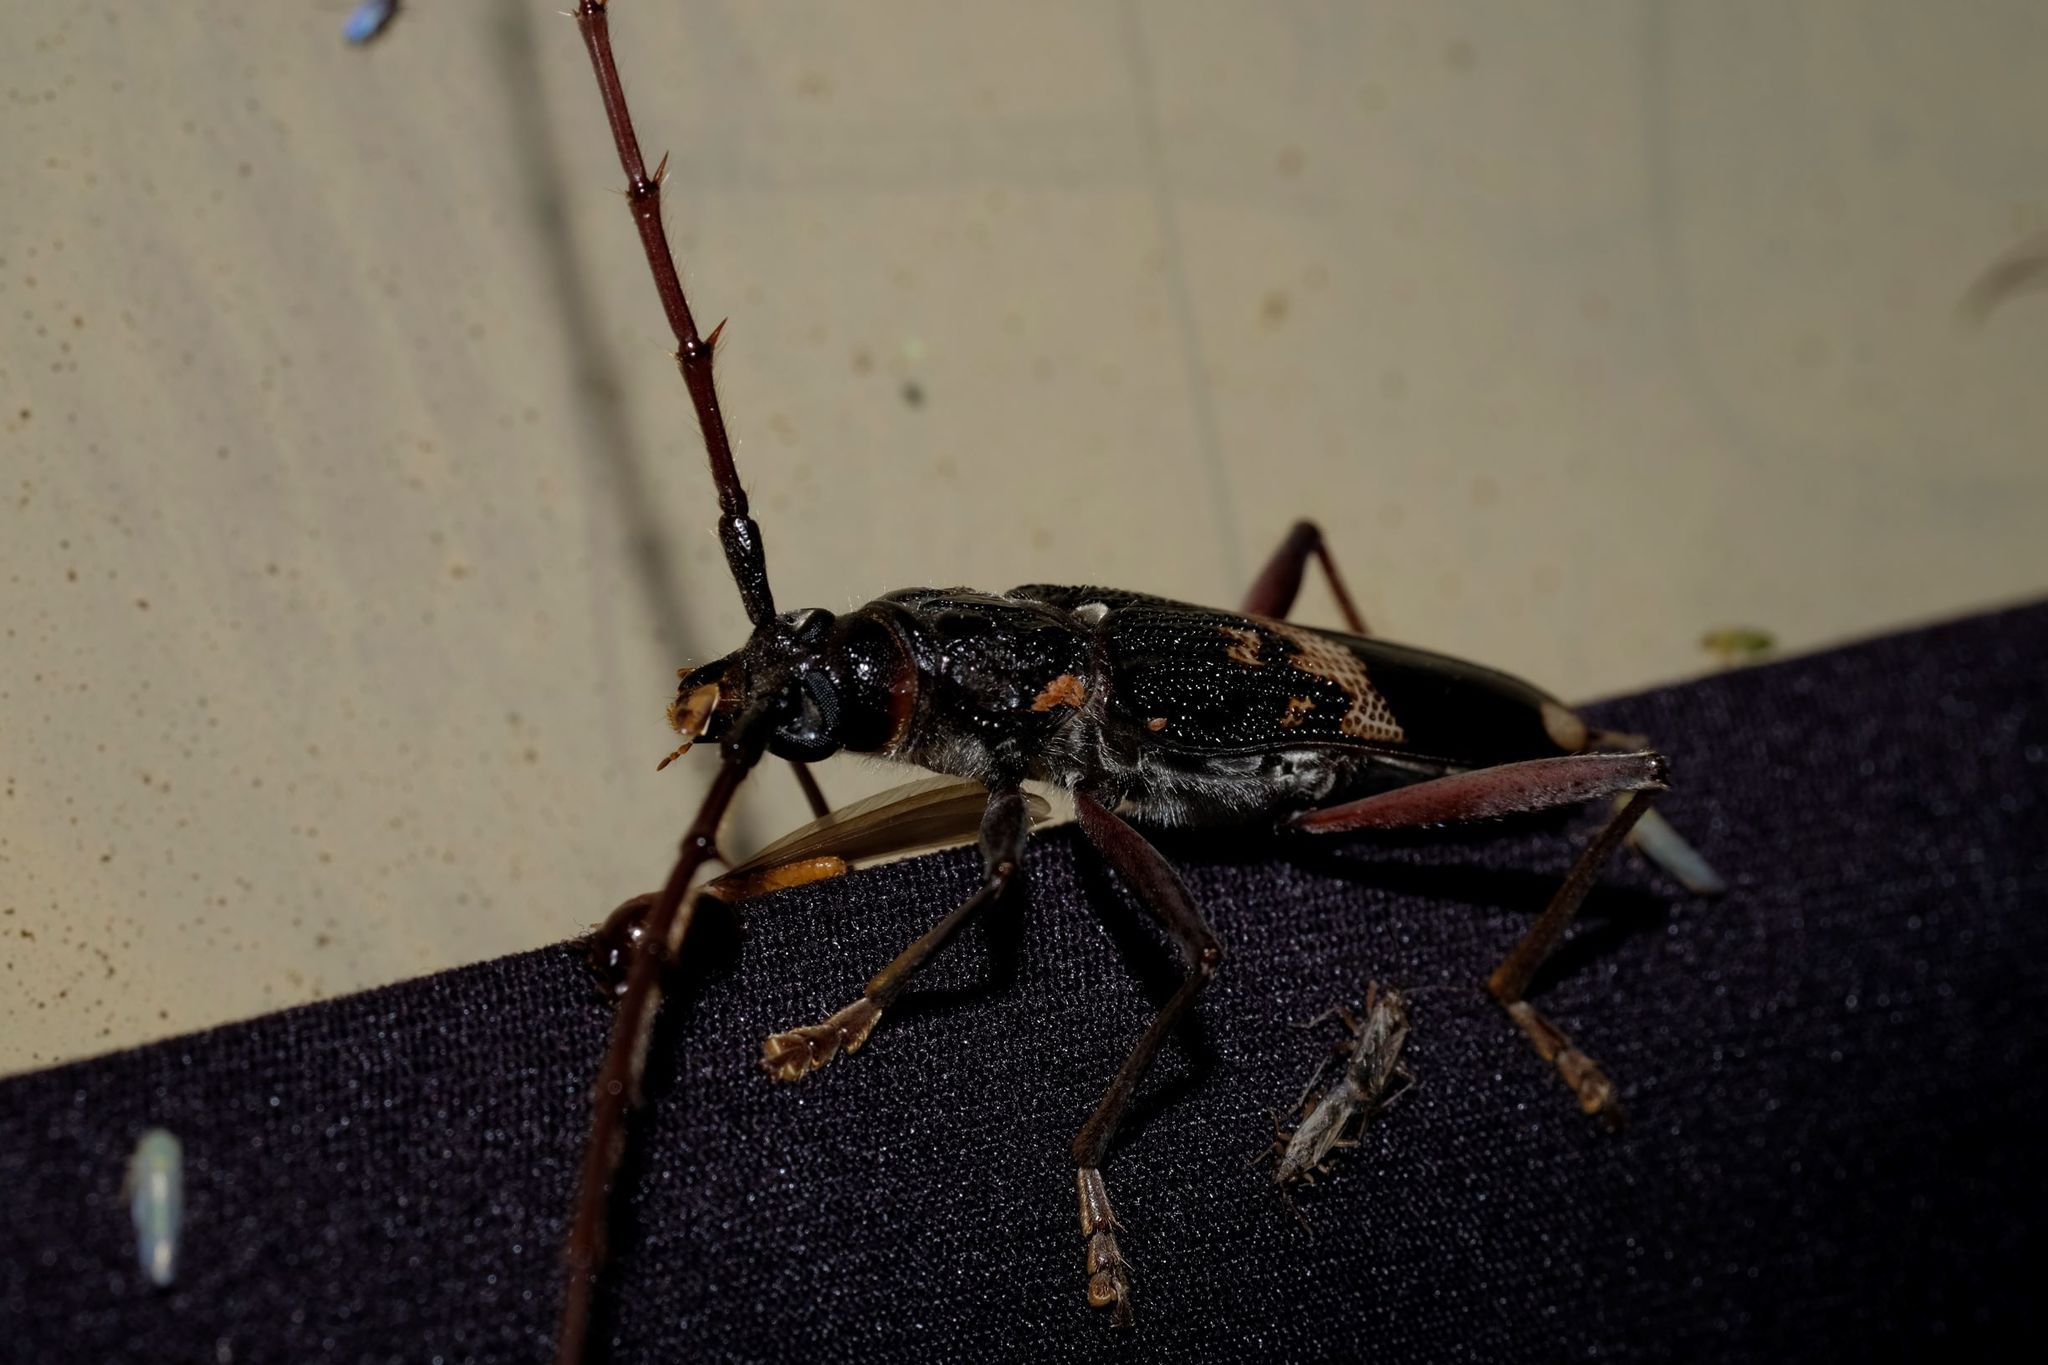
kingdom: Animalia
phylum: Arthropoda
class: Insecta
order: Coleoptera
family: Cerambycidae
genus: Phoracantha
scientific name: Phoracantha semipunctata
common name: Eucalyptus longhorn borer
